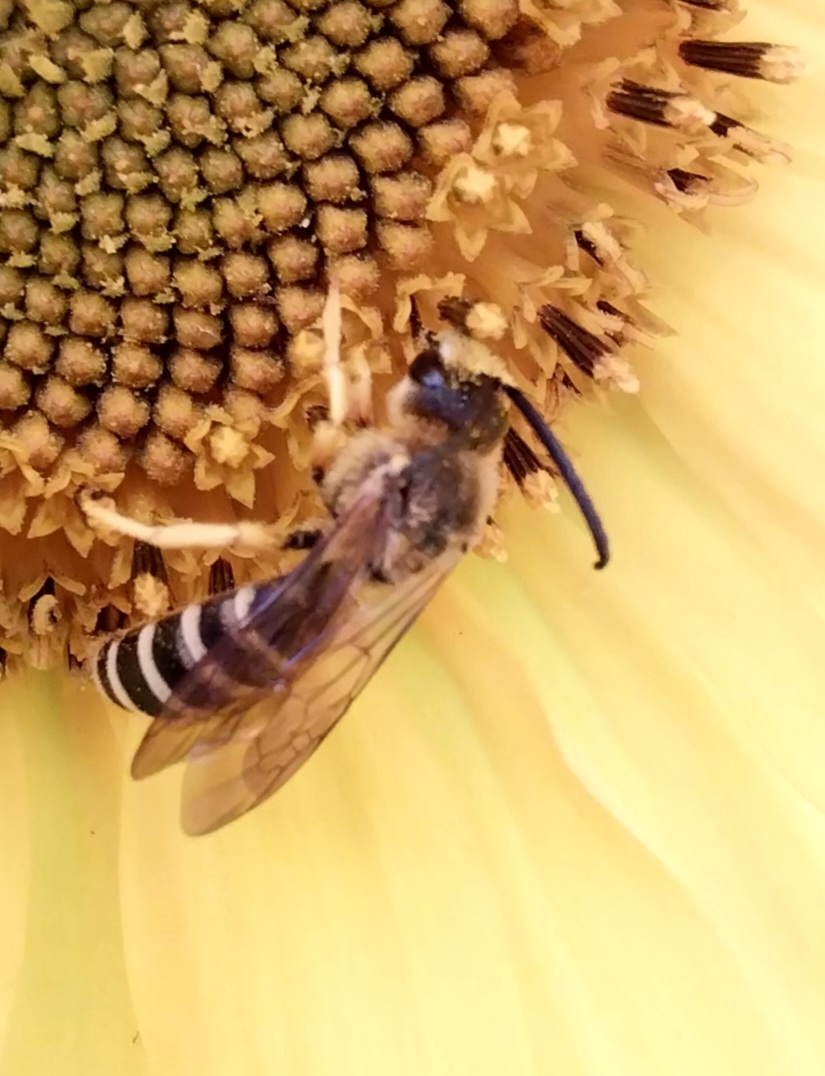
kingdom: Animalia
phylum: Arthropoda
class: Insecta
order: Hymenoptera
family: Halictidae
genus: Halictus
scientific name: Halictus scabiosae
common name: Great banded furrow bee
